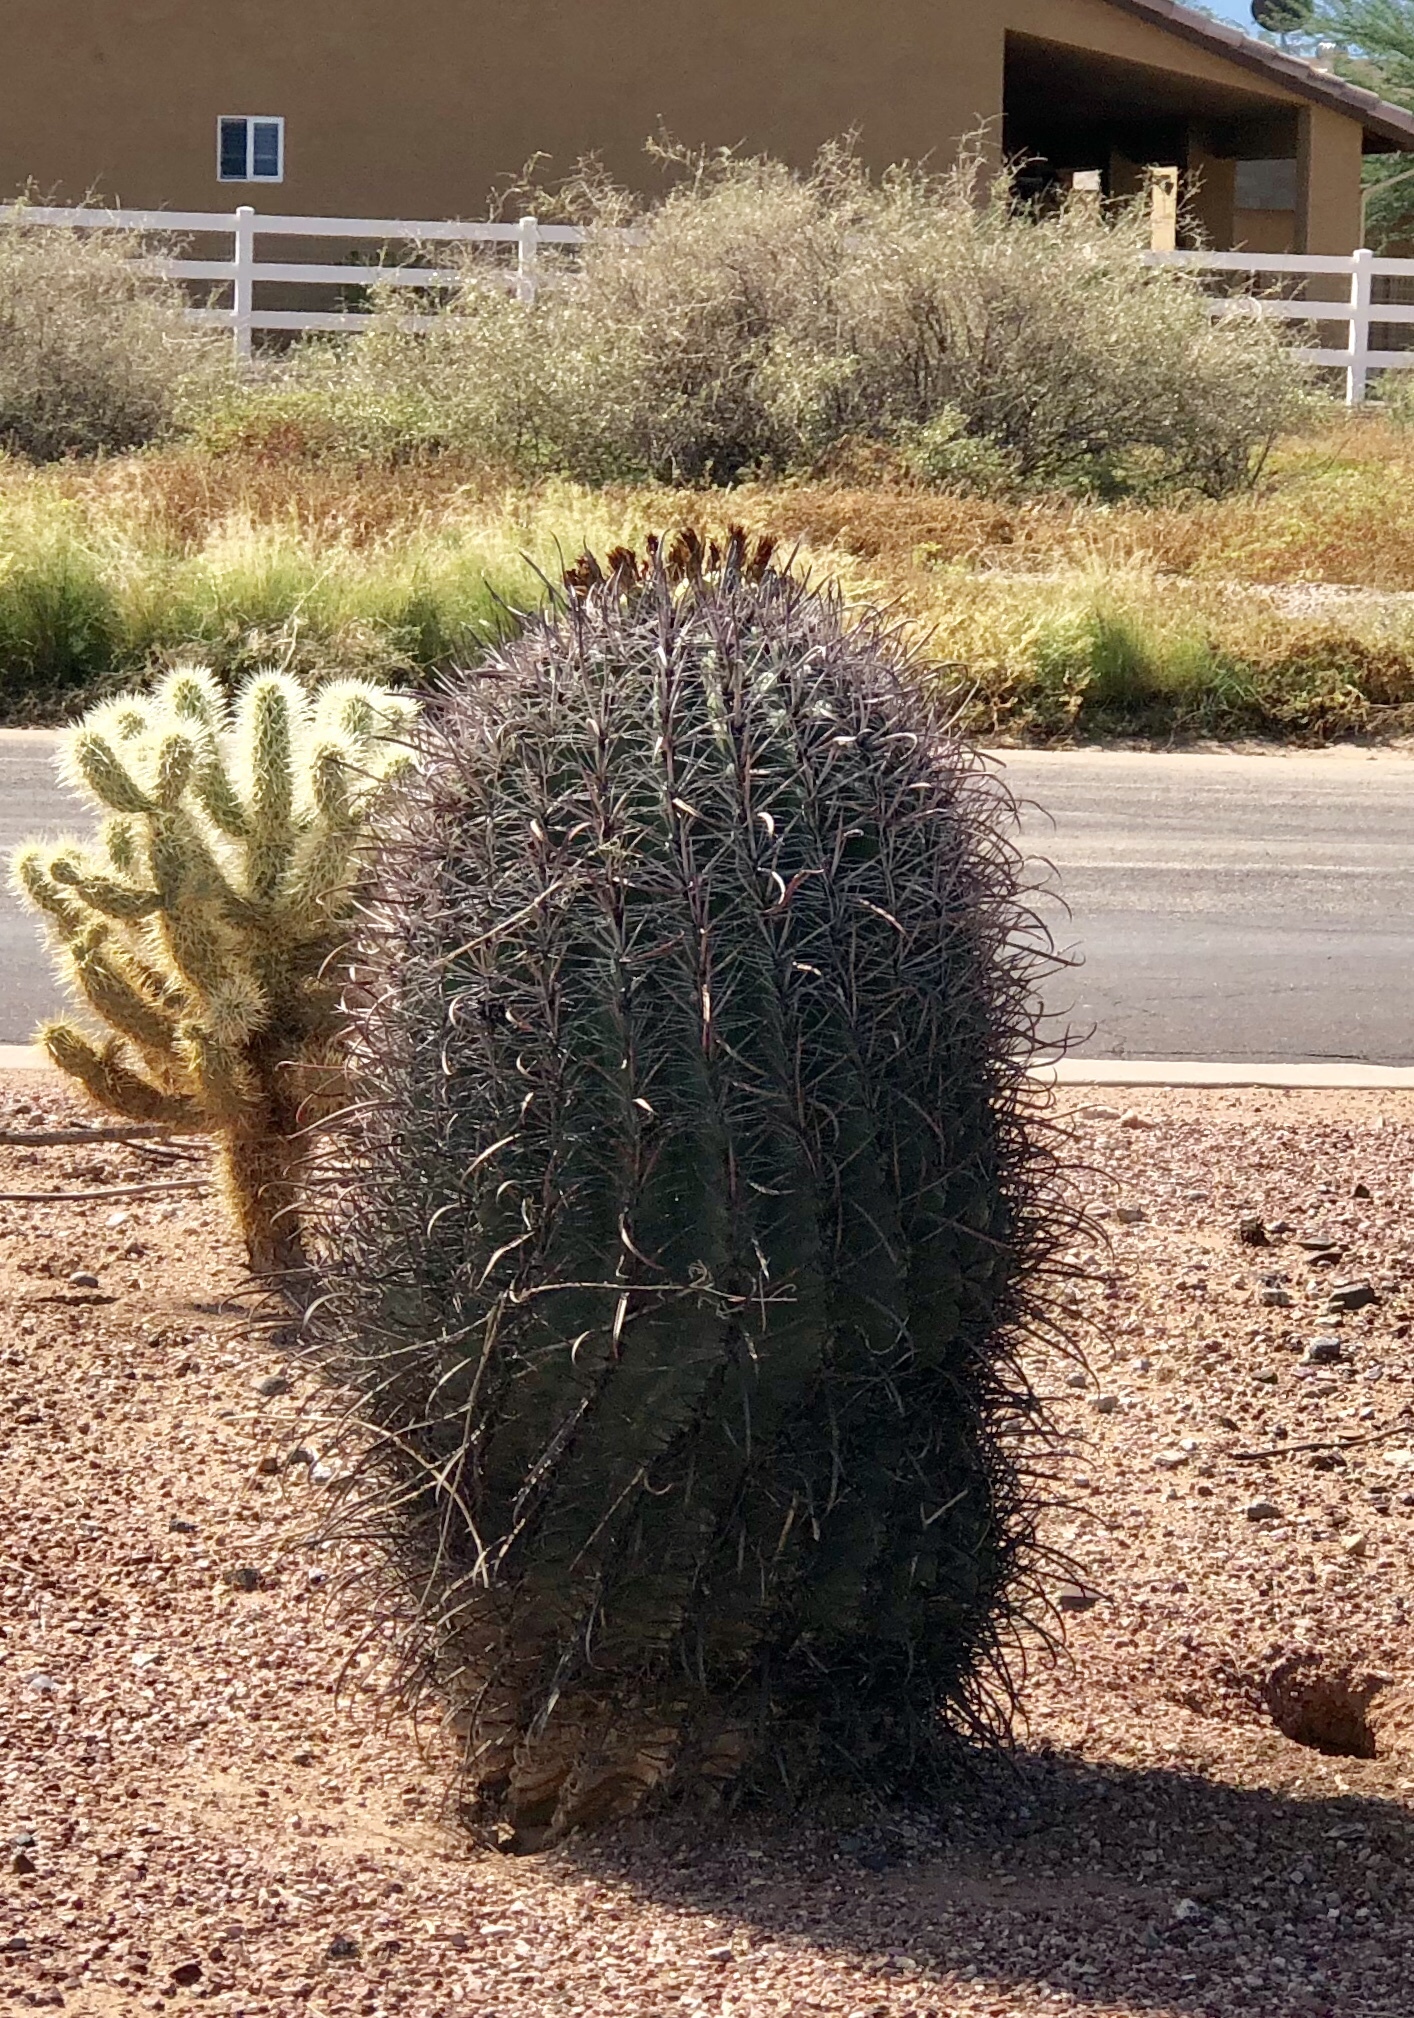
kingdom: Plantae
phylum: Tracheophyta
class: Magnoliopsida
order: Caryophyllales
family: Cactaceae
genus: Ferocactus
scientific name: Ferocactus wislizeni
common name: Candy barrel cactus
